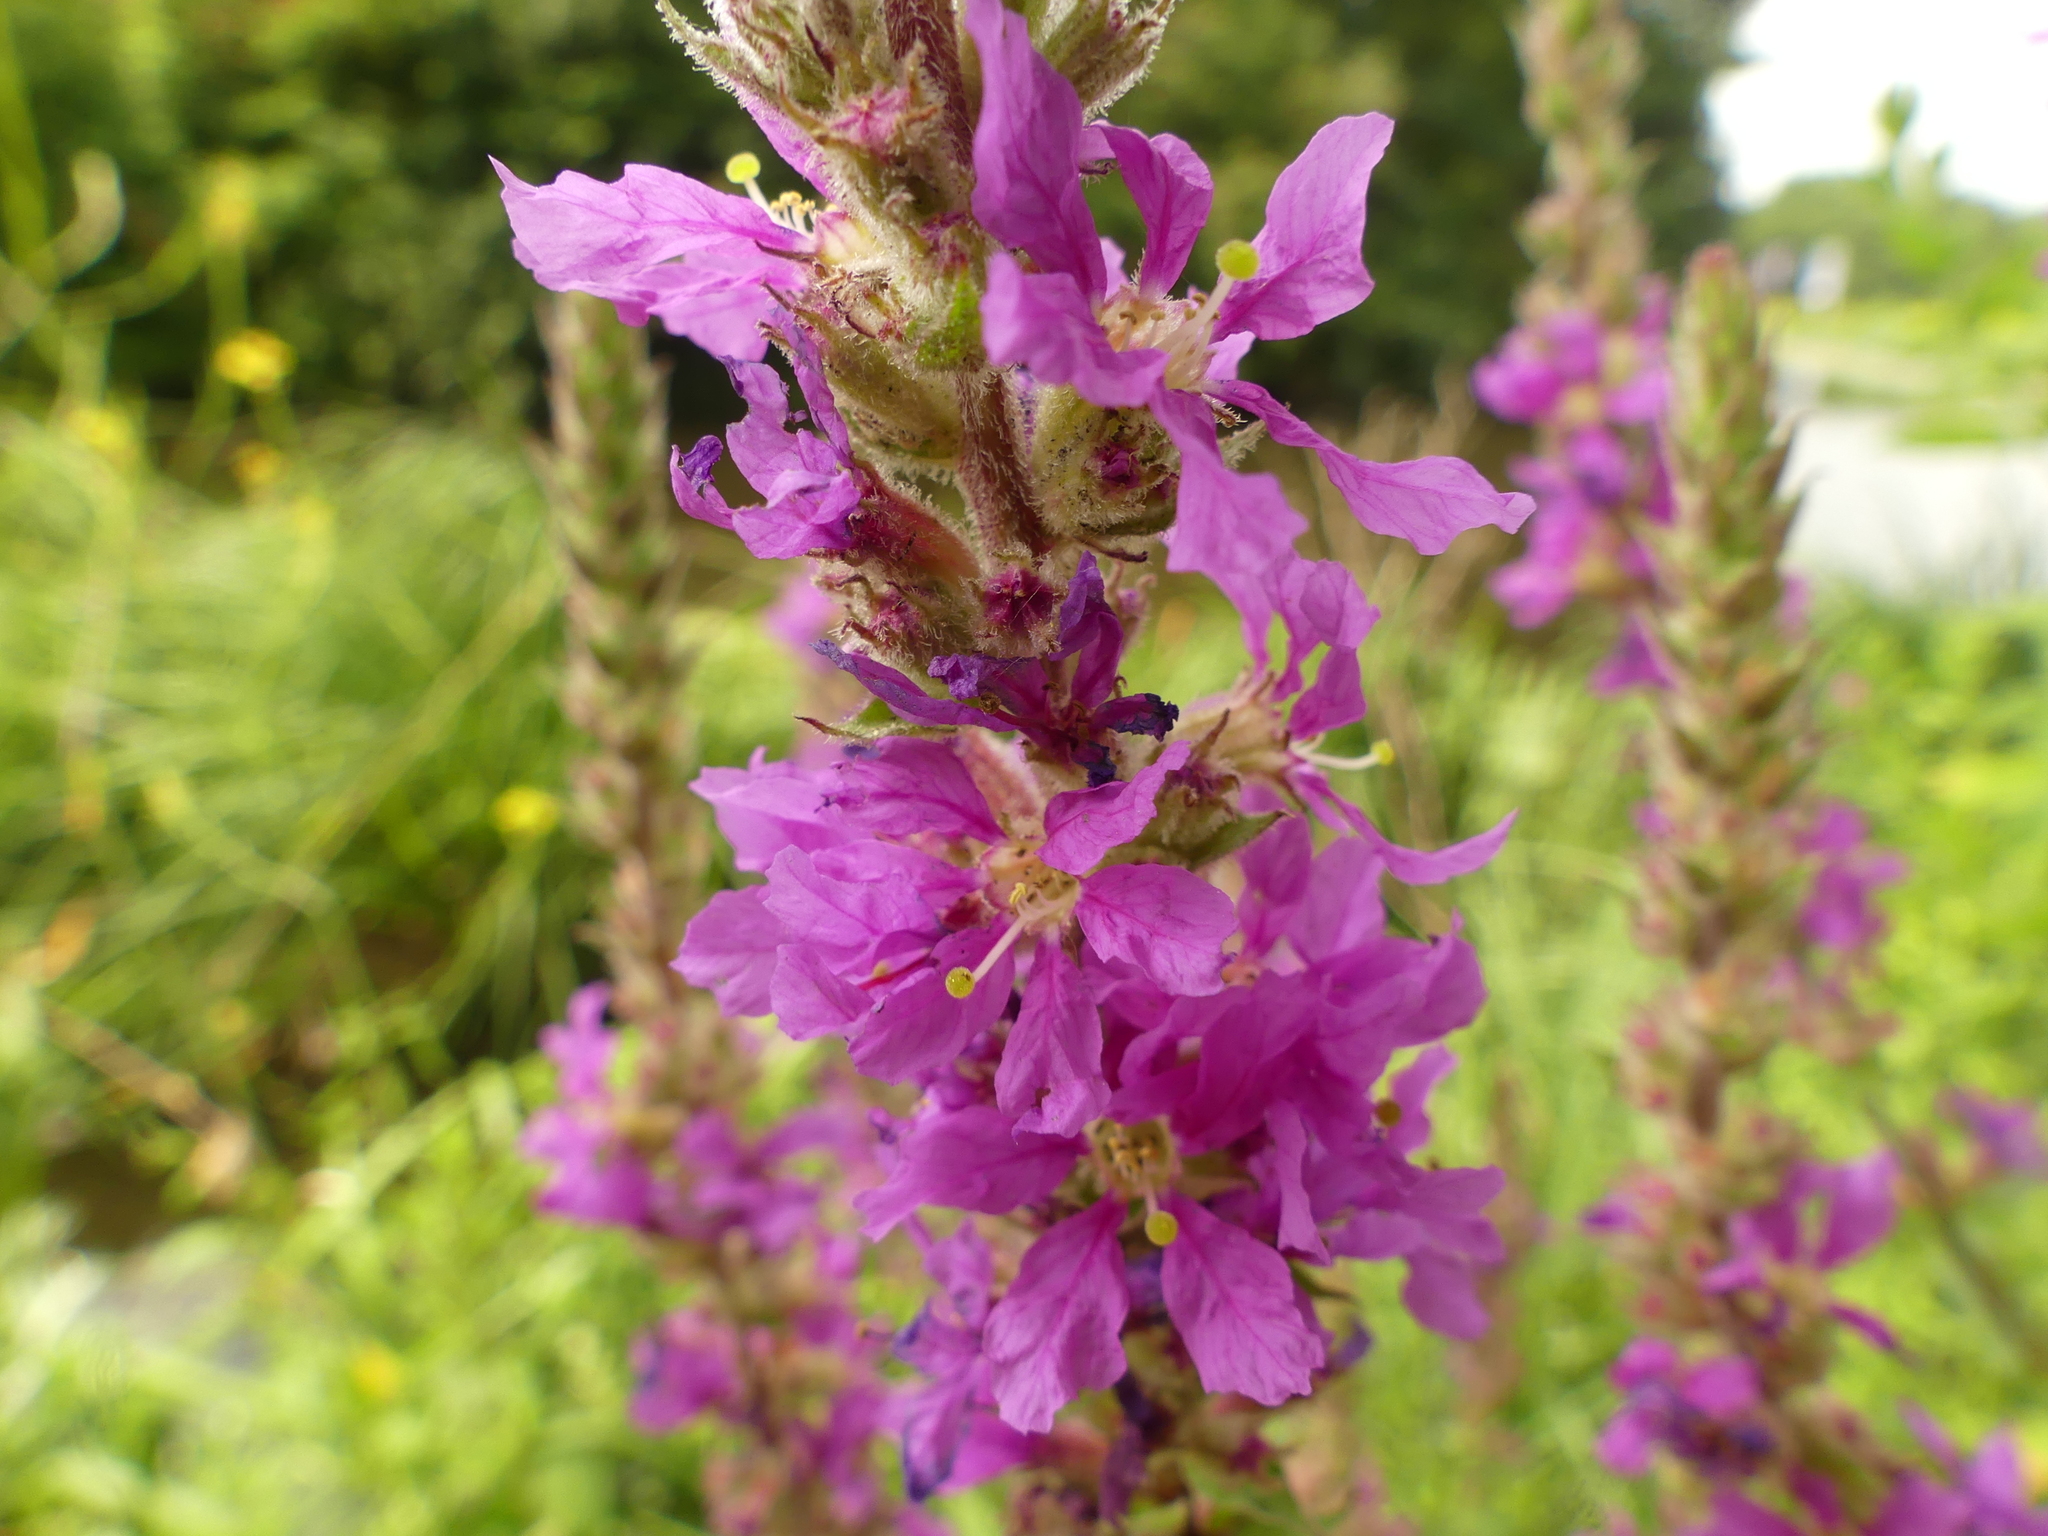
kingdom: Plantae
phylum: Tracheophyta
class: Magnoliopsida
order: Myrtales
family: Lythraceae
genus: Lythrum
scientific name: Lythrum salicaria
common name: Purple loosestrife
